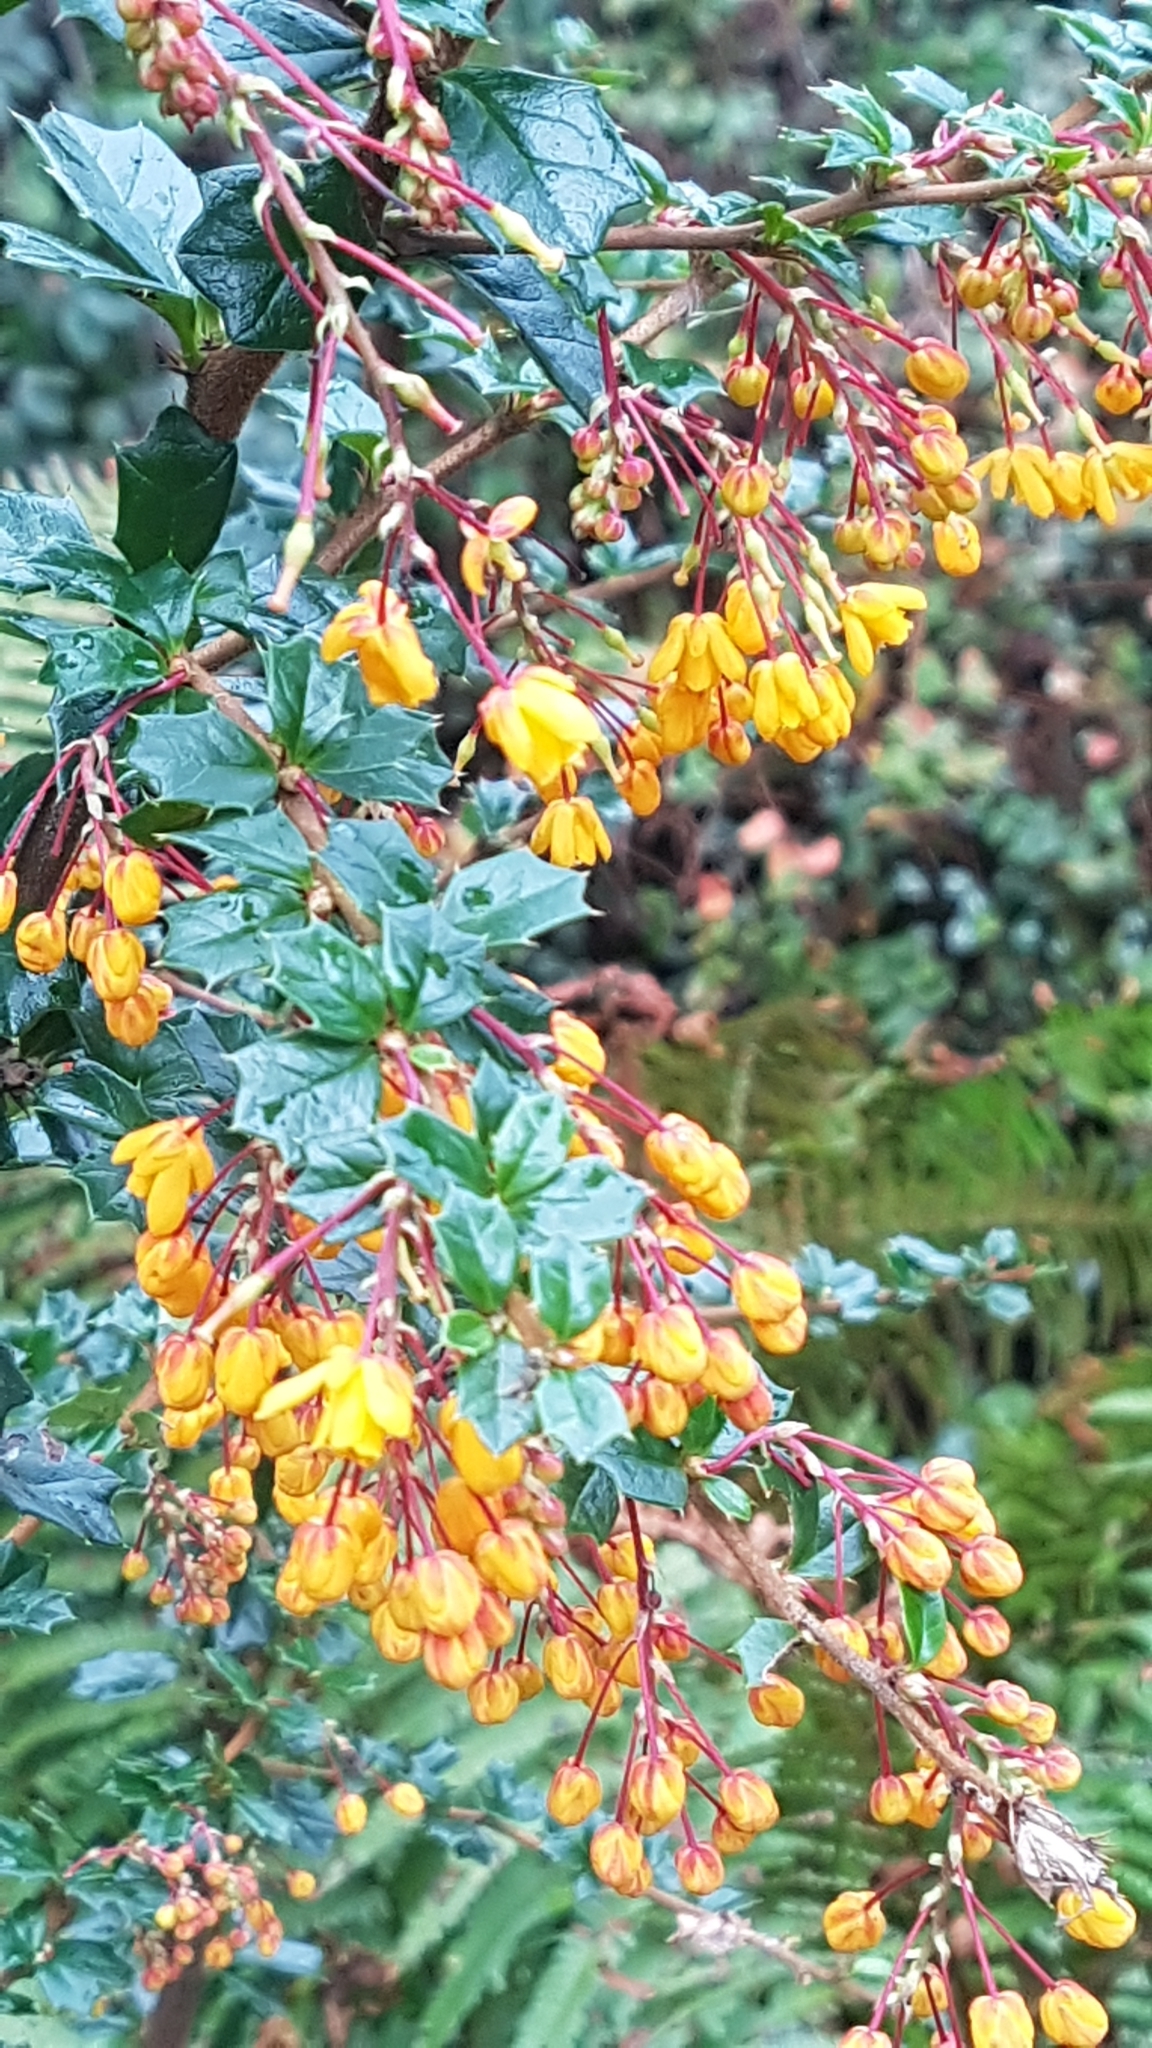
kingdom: Plantae
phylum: Tracheophyta
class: Magnoliopsida
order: Ranunculales
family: Berberidaceae
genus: Berberis
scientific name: Berberis darwinii
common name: Darwin's barberry
